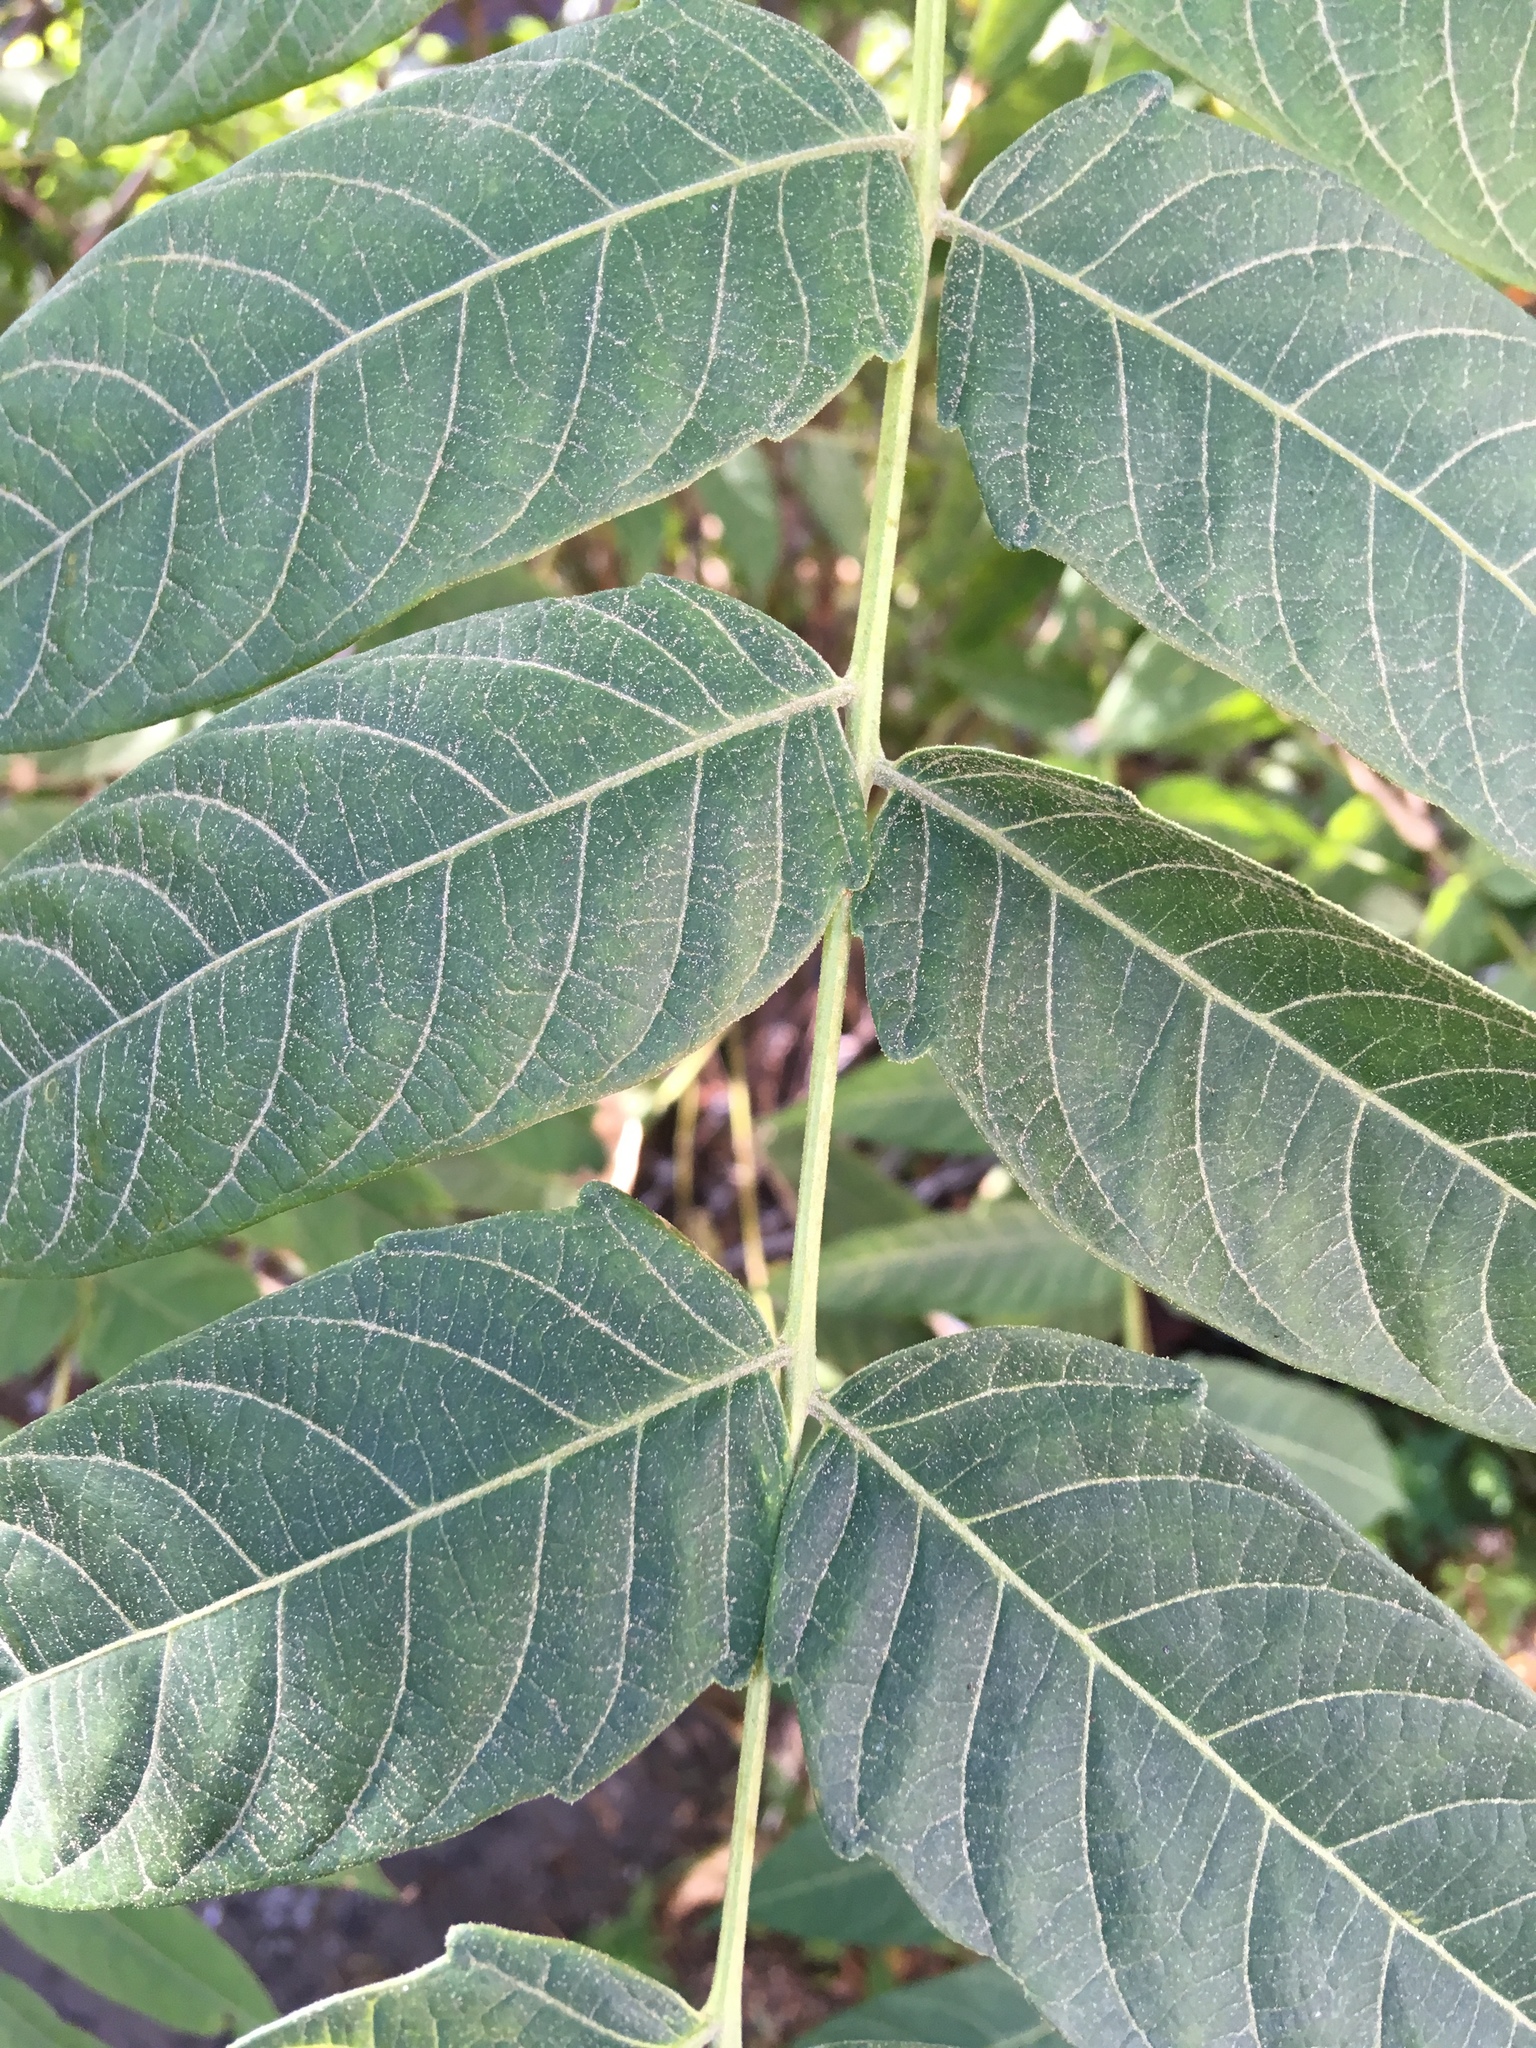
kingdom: Plantae
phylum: Tracheophyta
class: Magnoliopsida
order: Sapindales
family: Simaroubaceae
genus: Ailanthus
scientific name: Ailanthus altissima
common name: Tree-of-heaven
